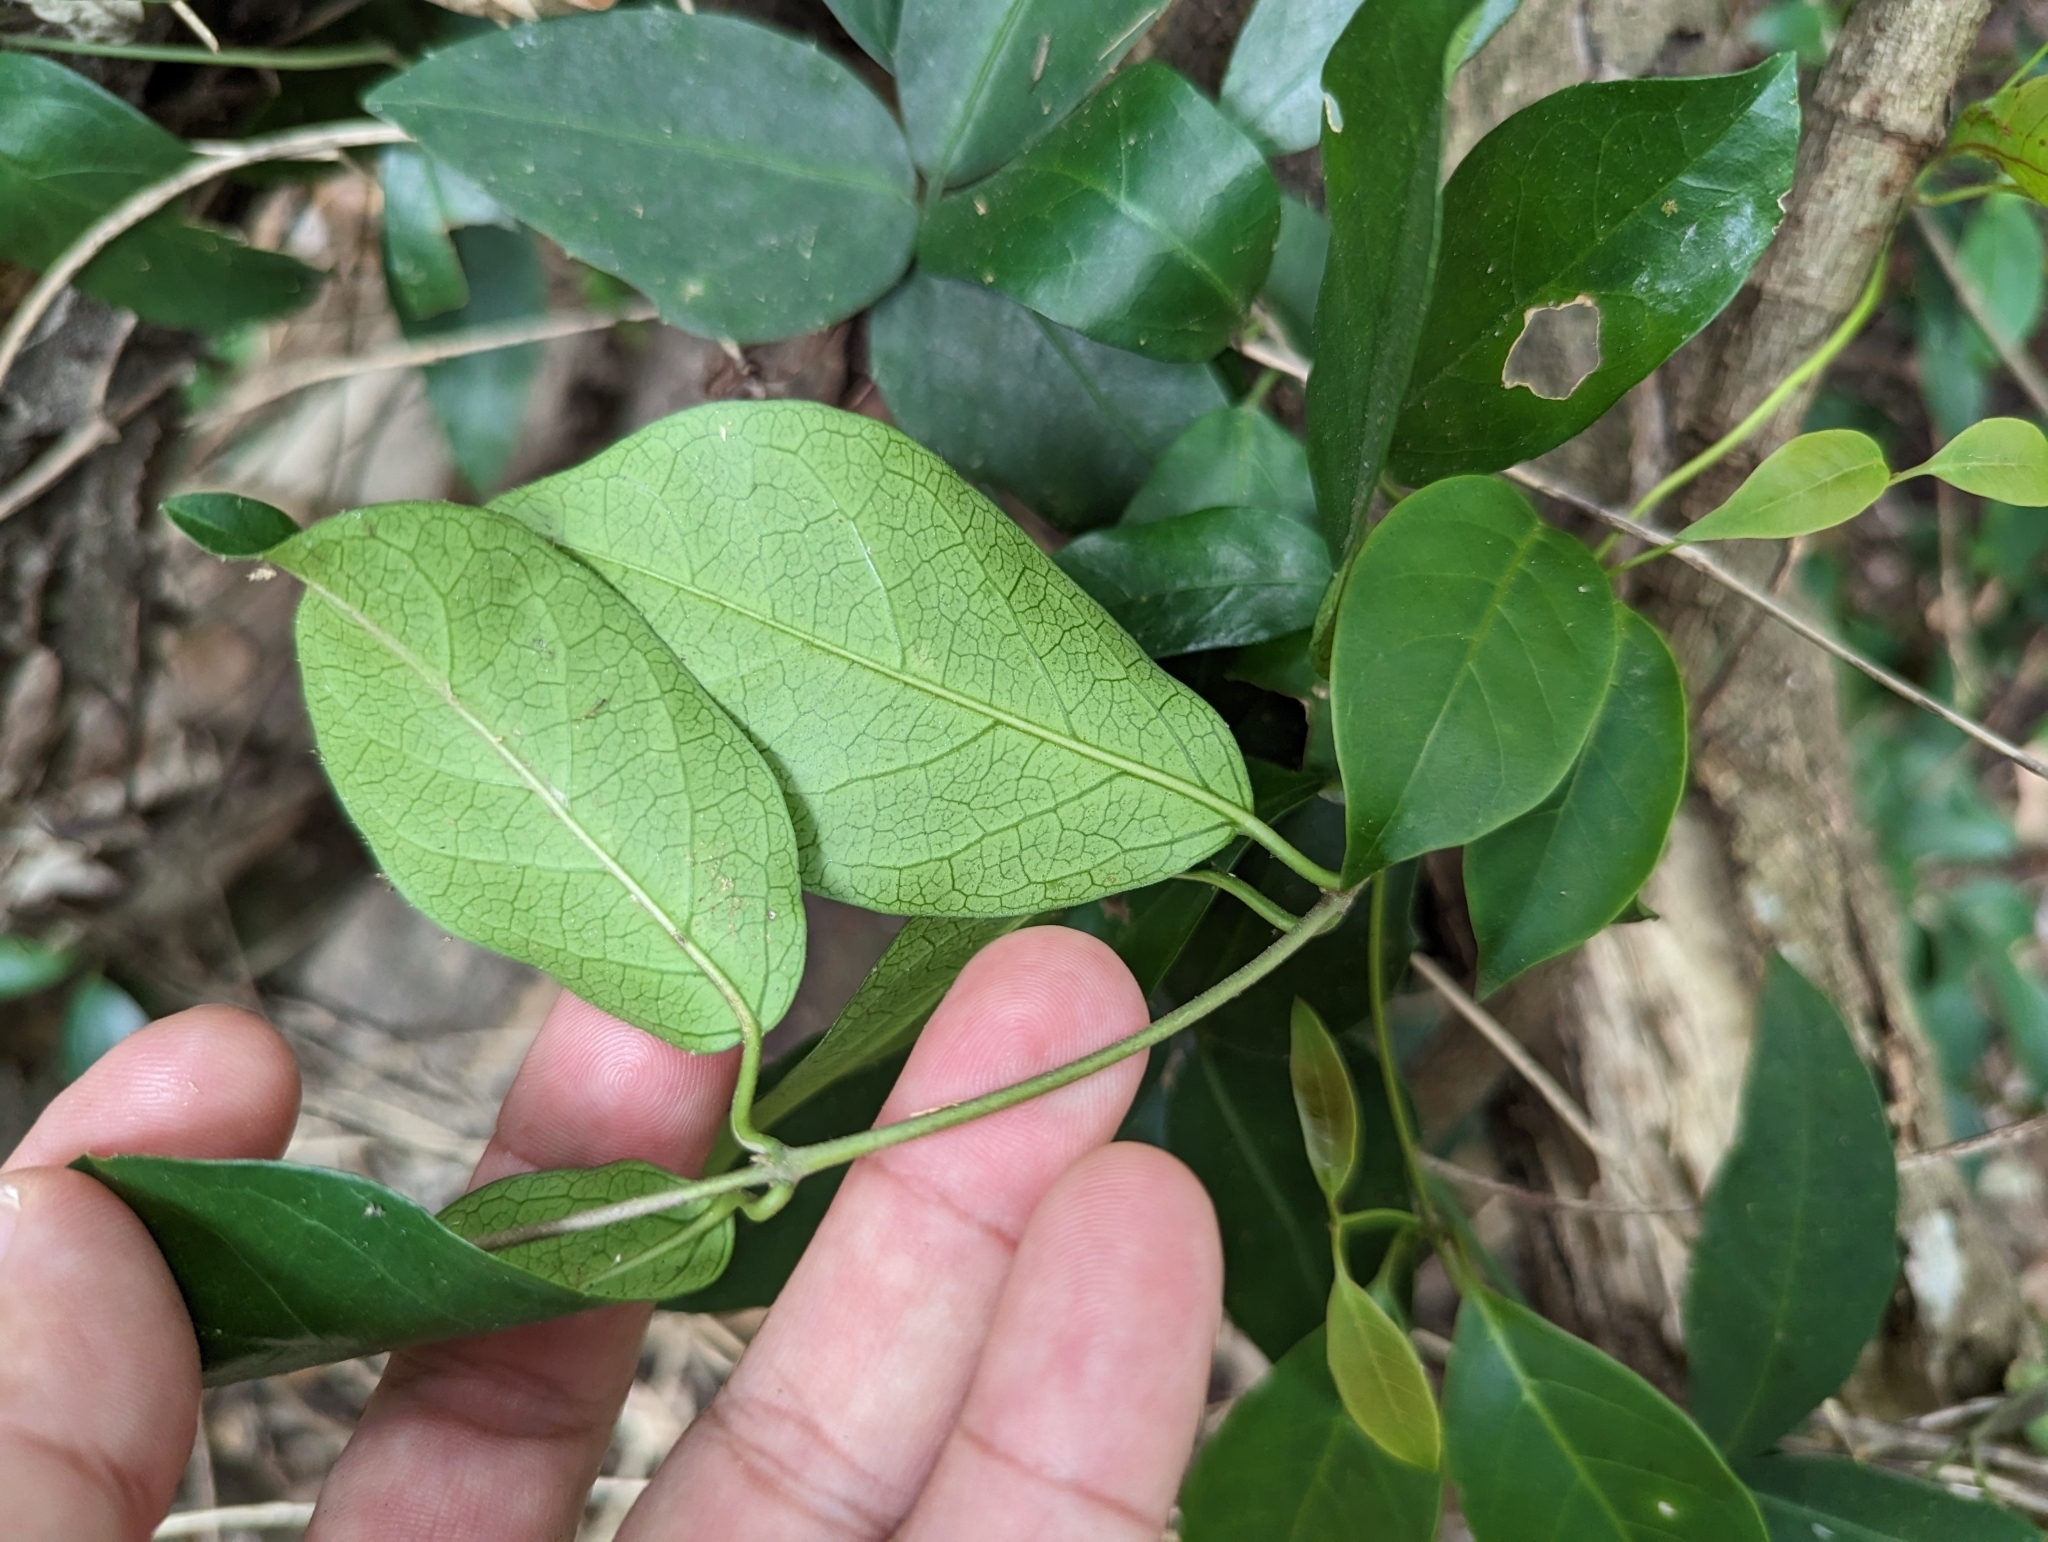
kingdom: Plantae
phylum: Tracheophyta
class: Magnoliopsida
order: Gentianales
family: Apocynaceae
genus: Gymnema
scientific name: Gymnema sylvestre
